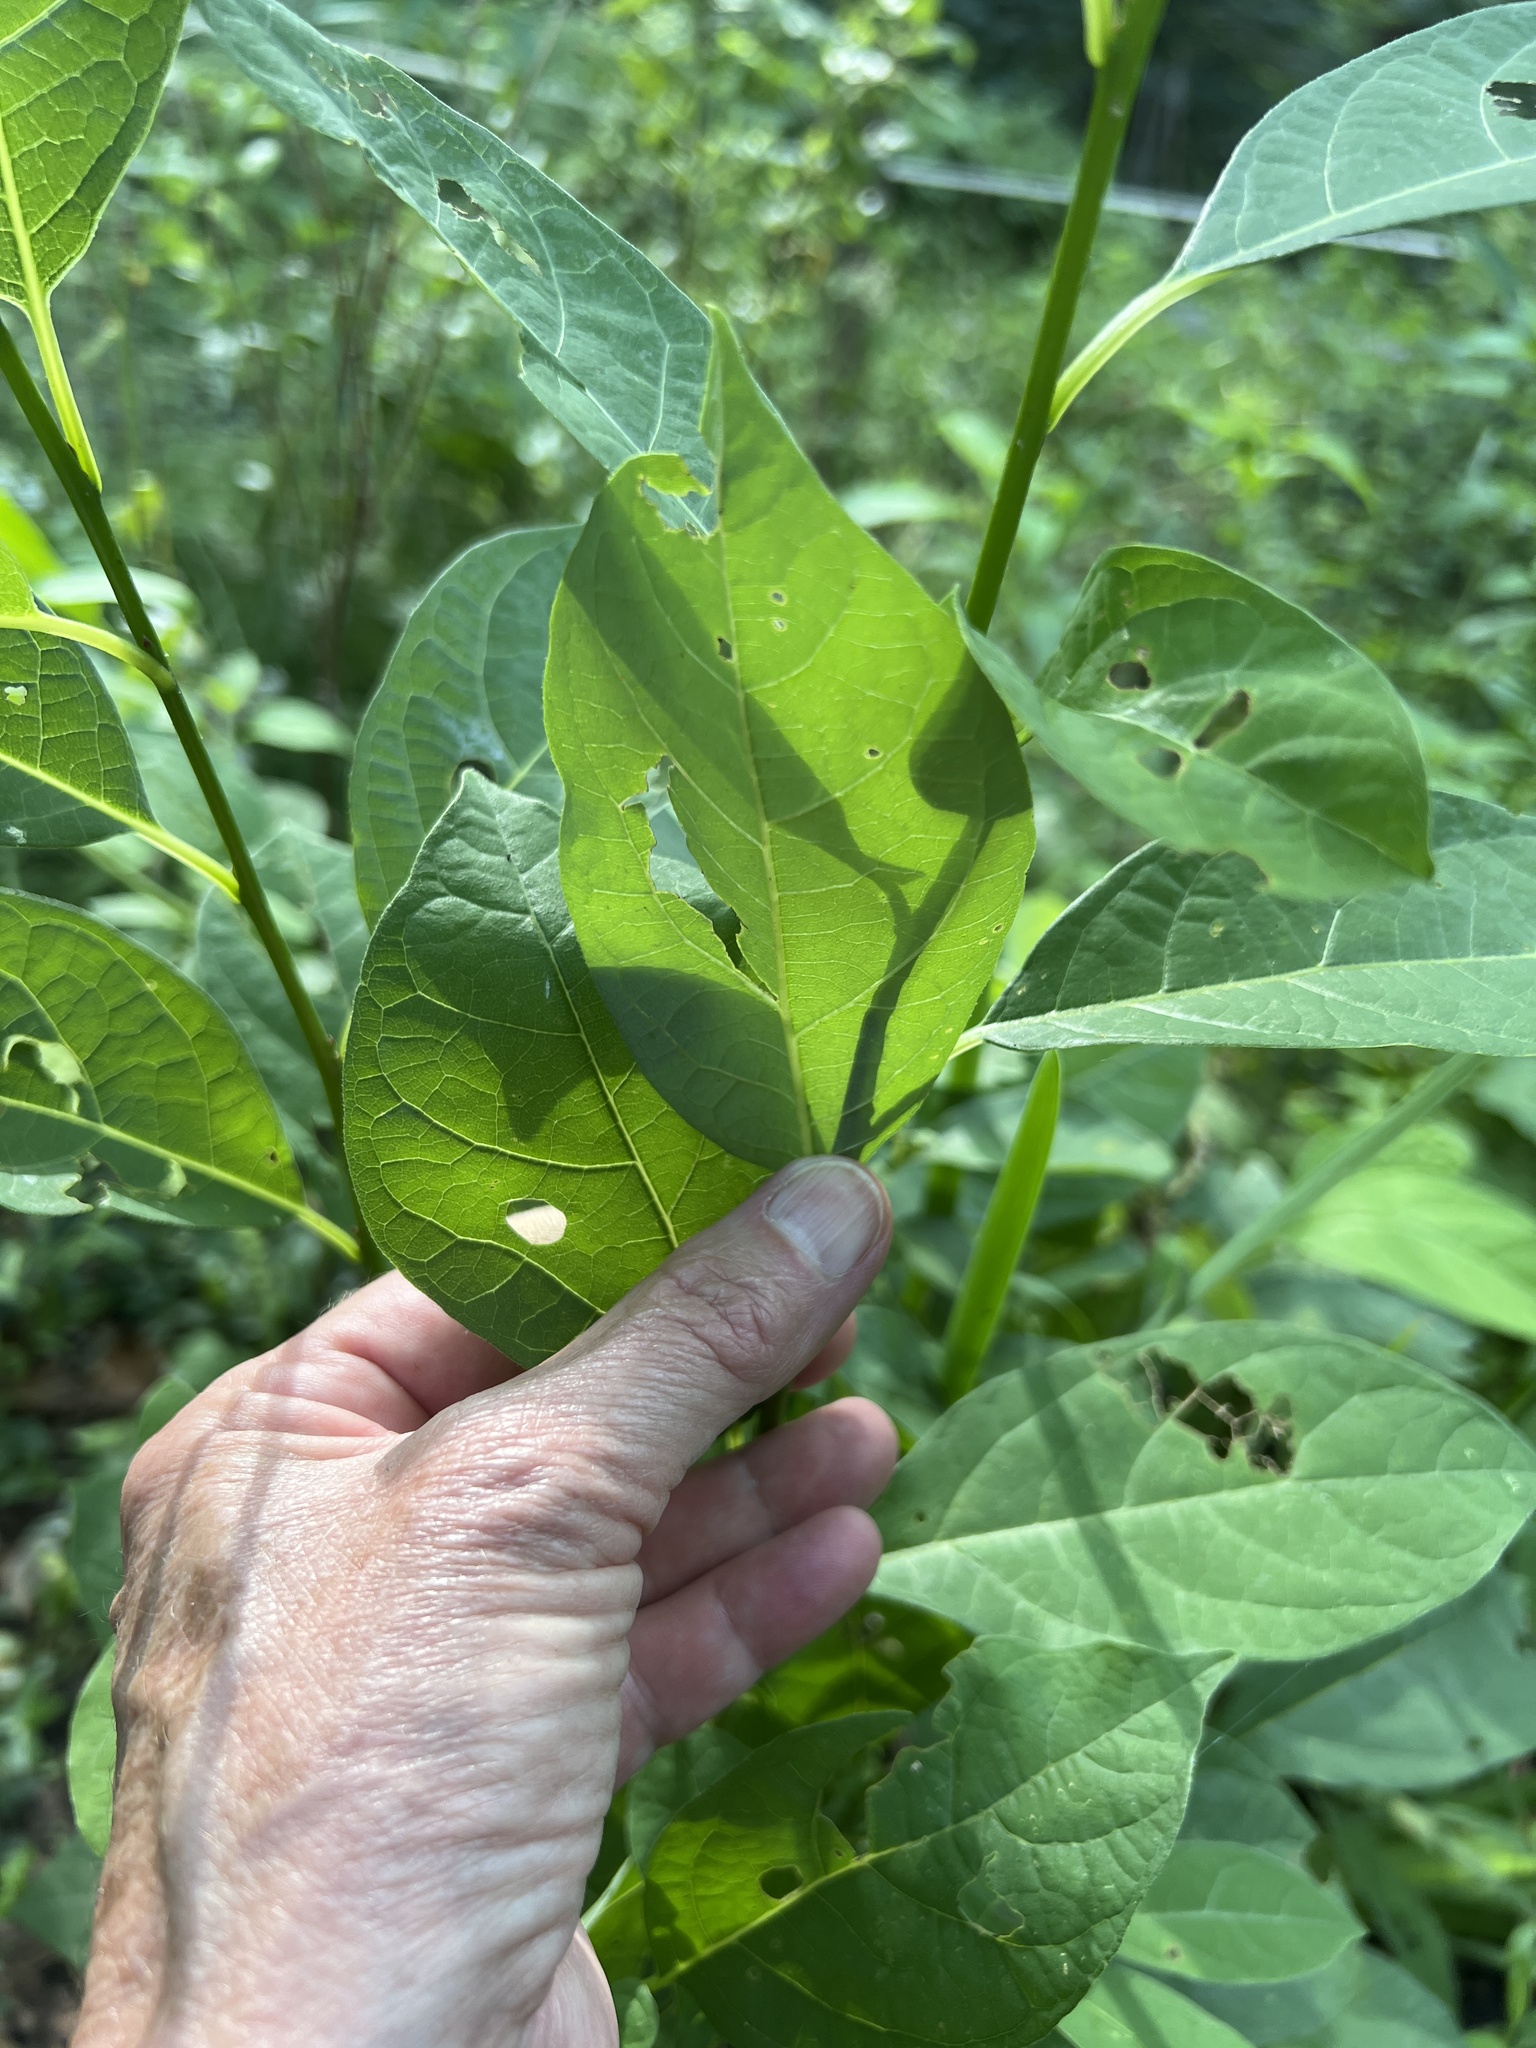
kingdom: Plantae
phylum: Tracheophyta
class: Magnoliopsida
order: Laurales
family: Lauraceae
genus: Lindera
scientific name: Lindera benzoin
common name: Spicebush
